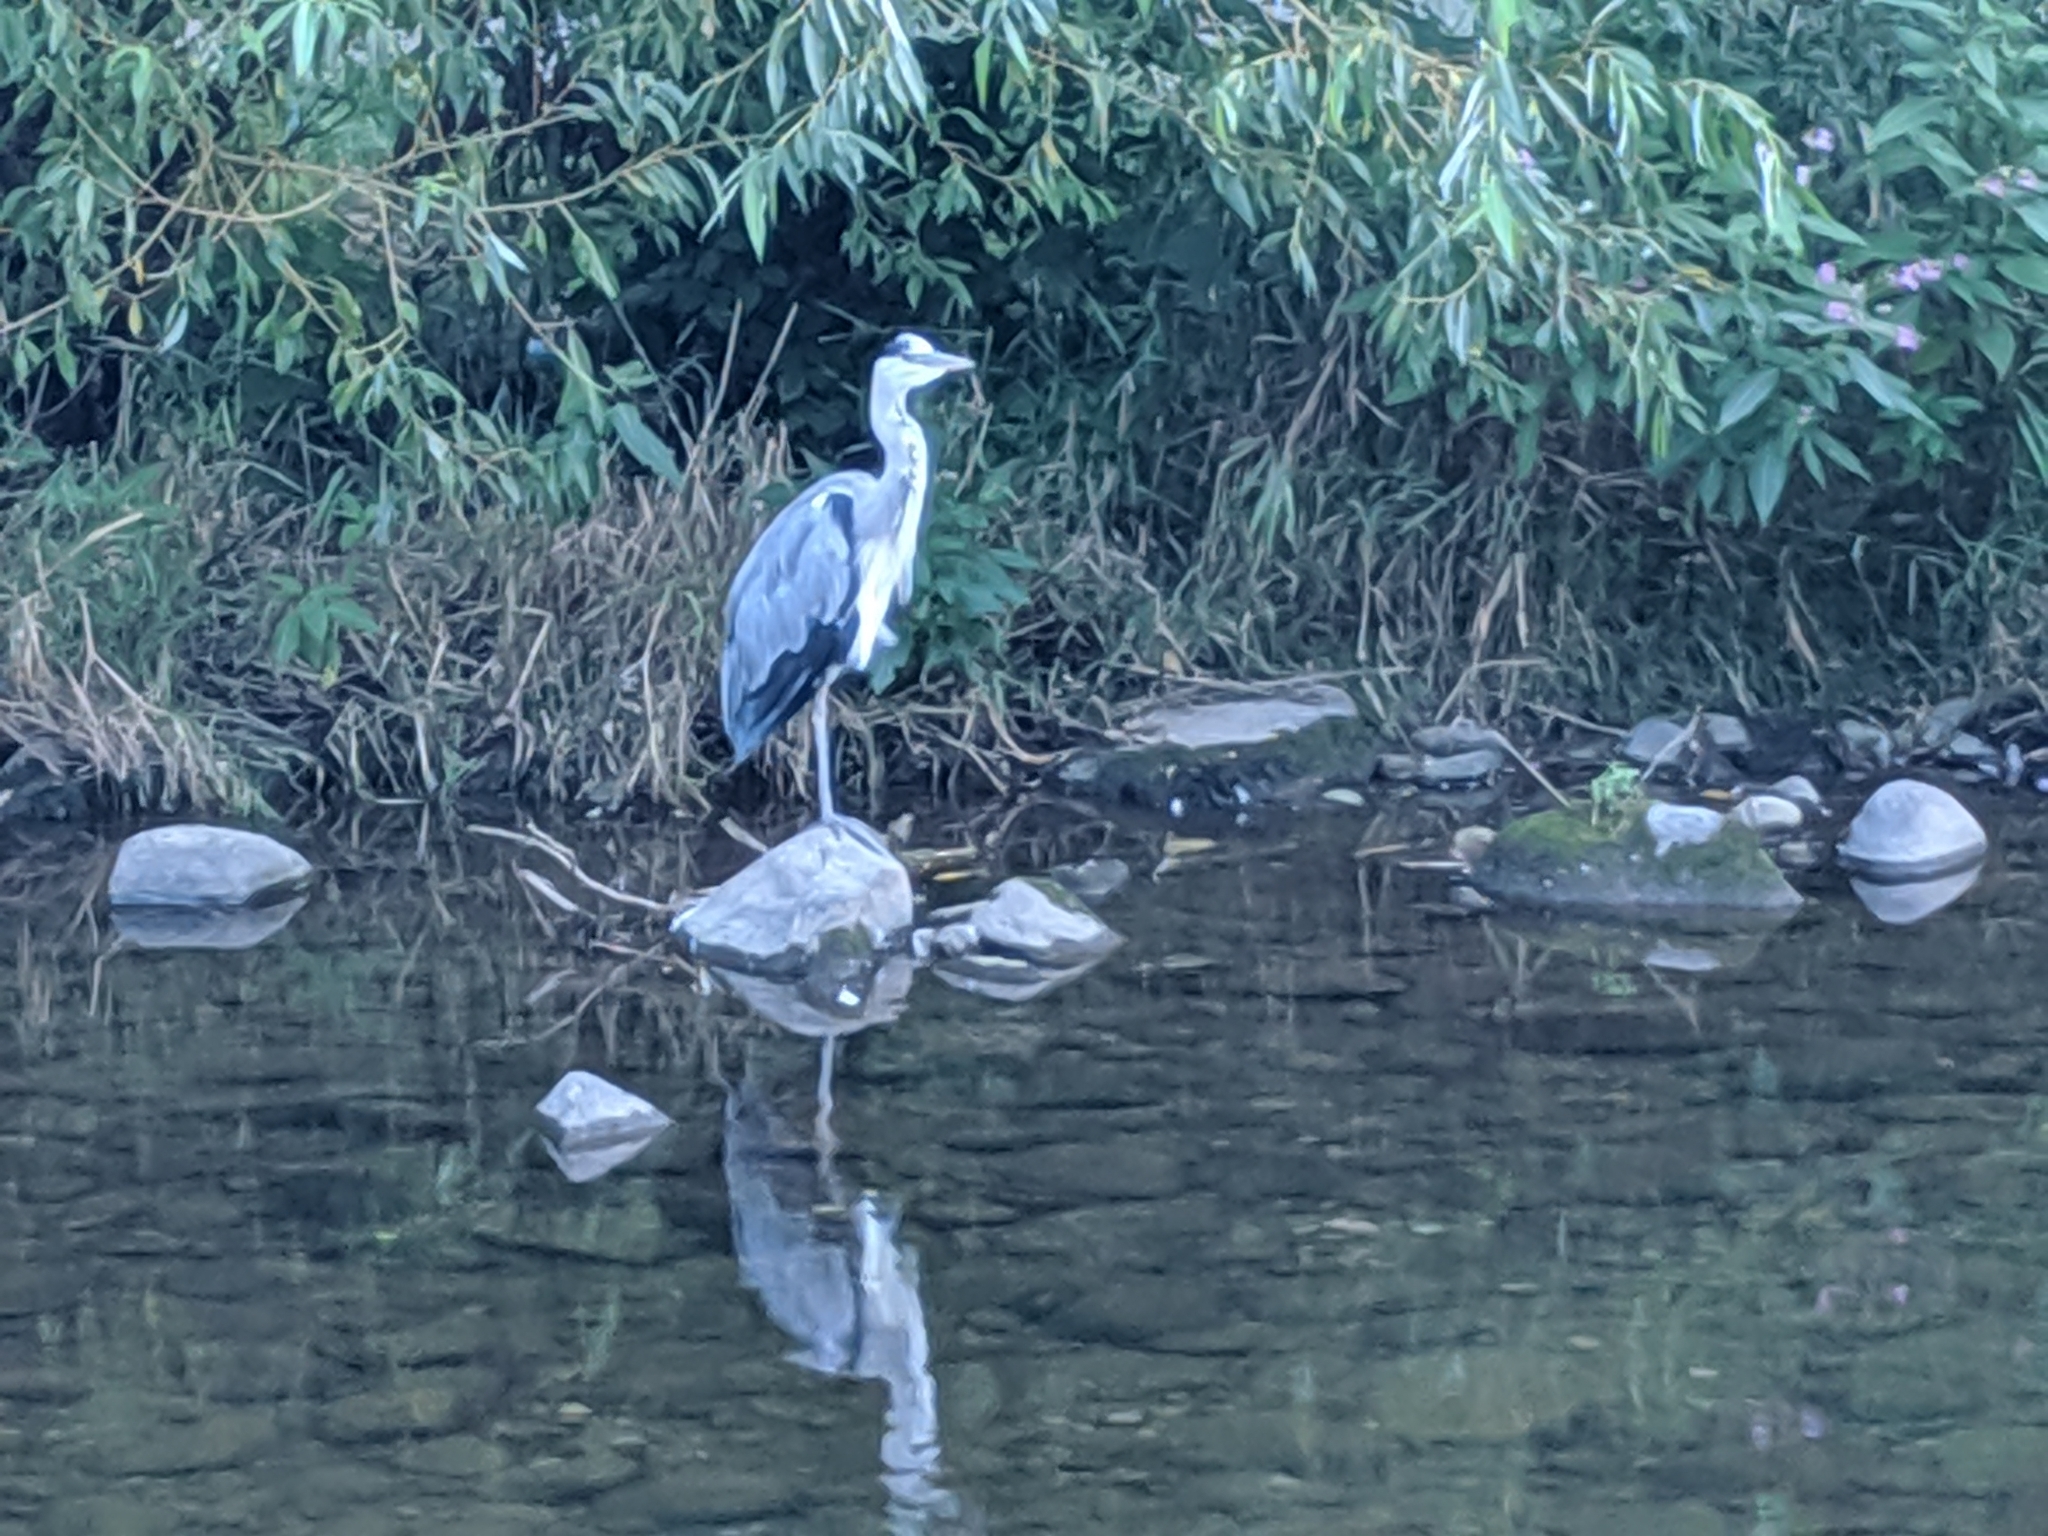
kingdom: Animalia
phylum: Chordata
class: Aves
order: Pelecaniformes
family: Ardeidae
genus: Ardea
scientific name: Ardea cinerea
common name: Grey heron
